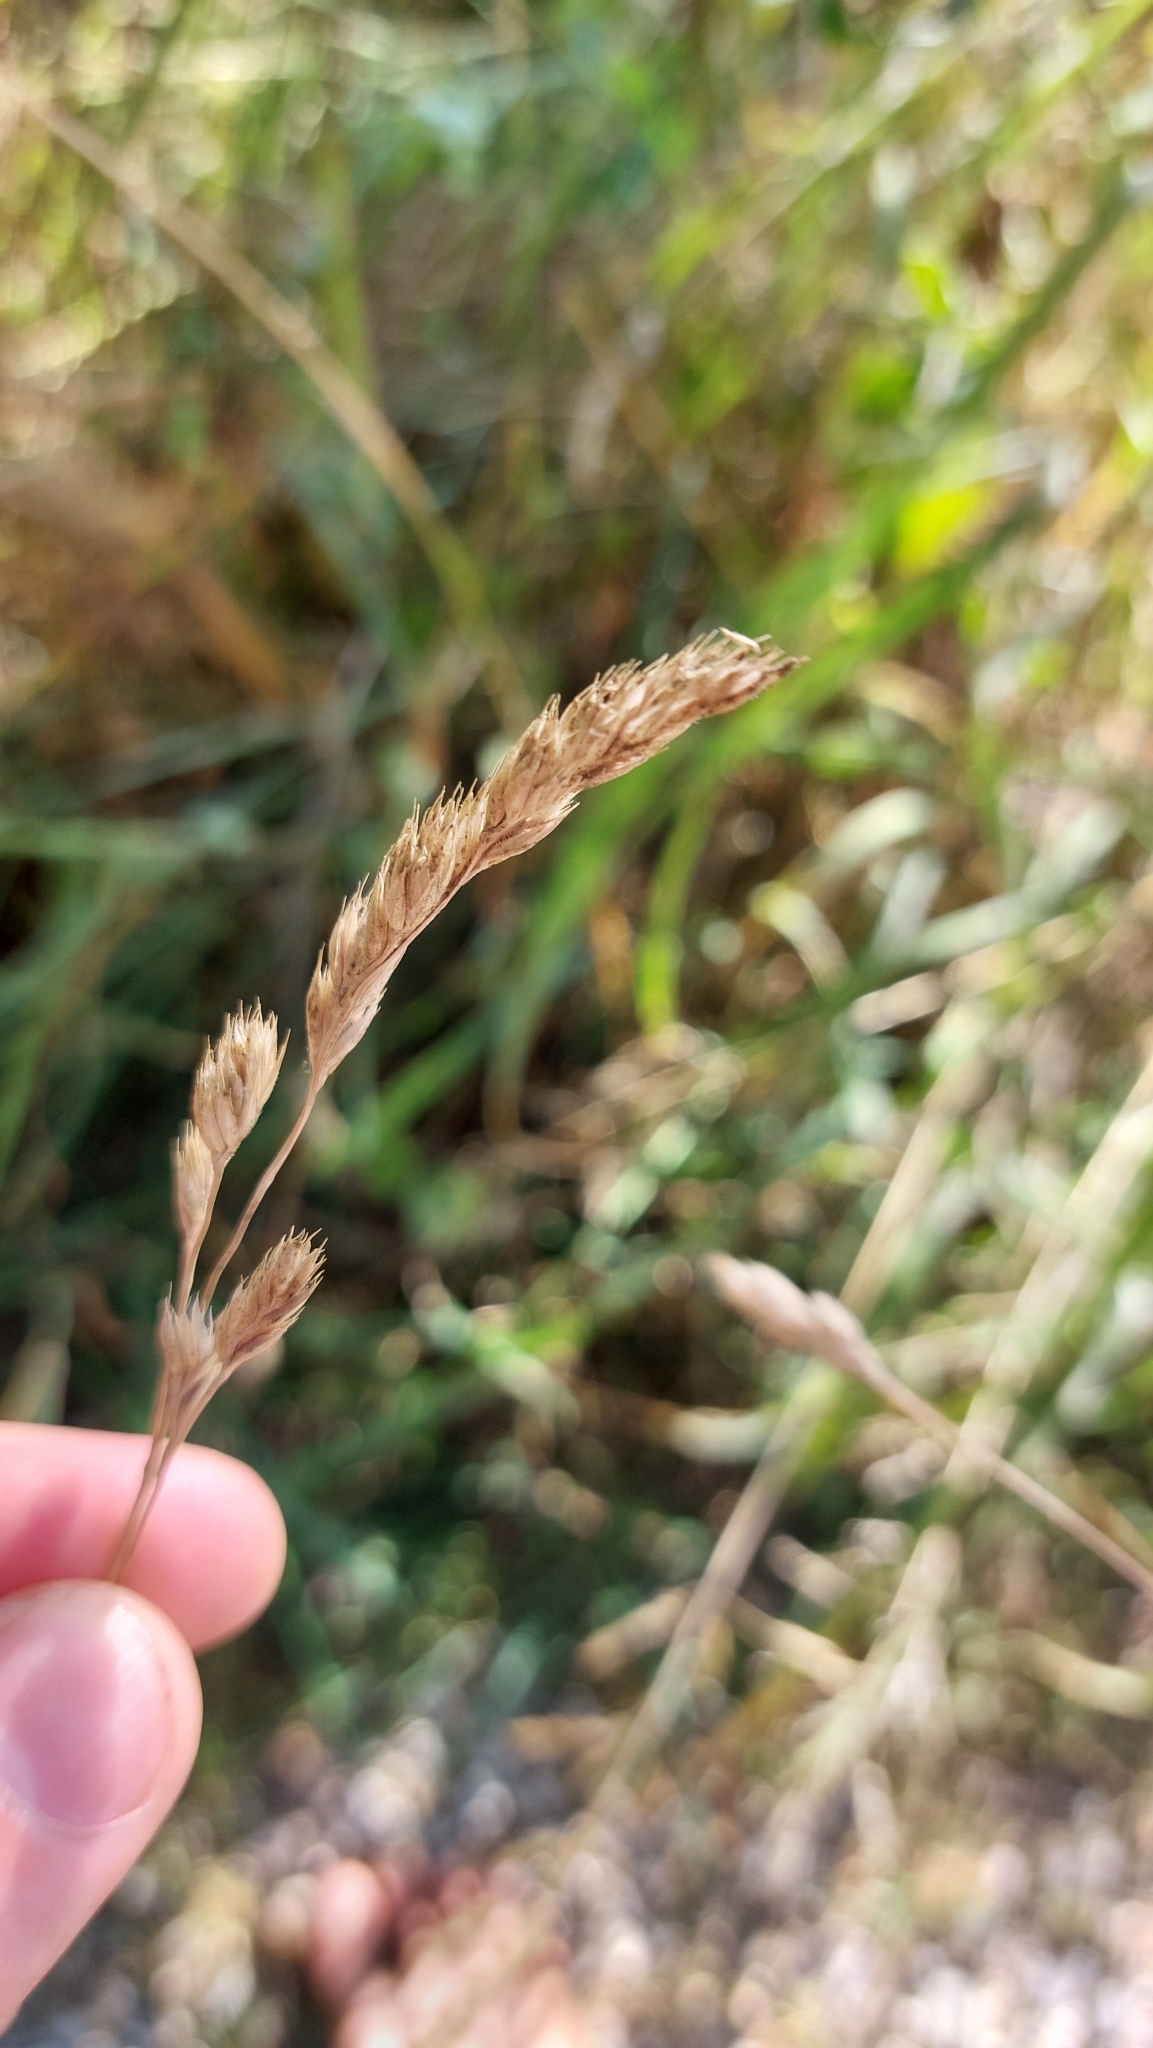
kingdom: Plantae
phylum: Tracheophyta
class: Liliopsida
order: Poales
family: Poaceae
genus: Dactylis
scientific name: Dactylis glomerata
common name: Orchardgrass
